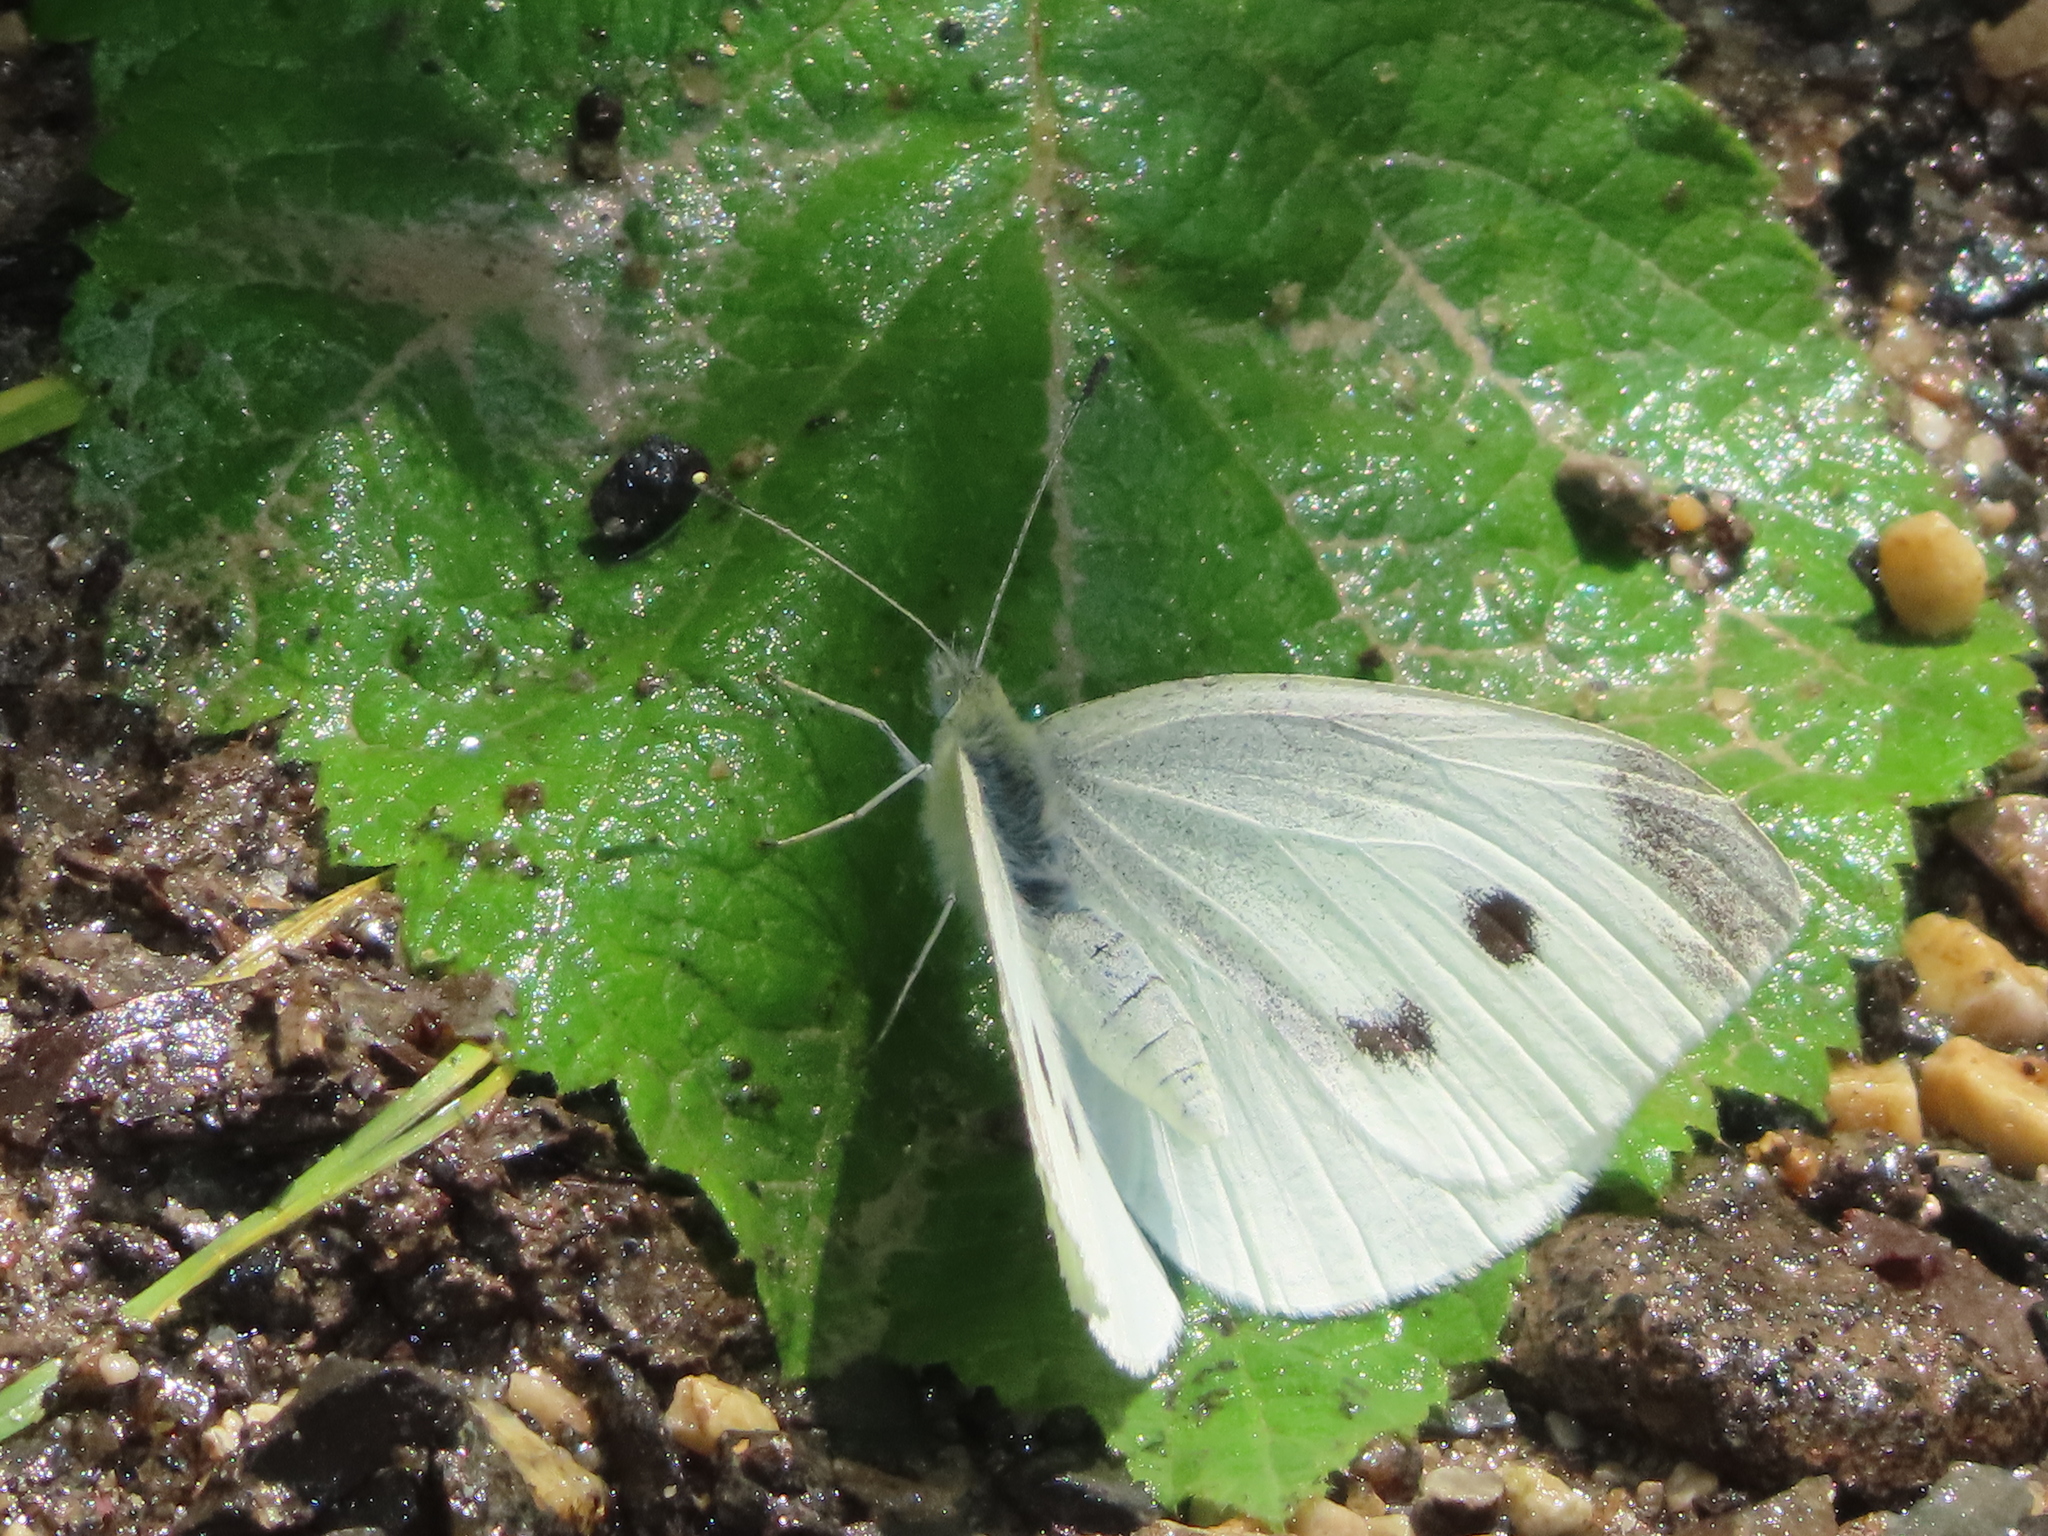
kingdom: Animalia
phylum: Arthropoda
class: Insecta
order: Lepidoptera
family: Pieridae
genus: Pieris
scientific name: Pieris rapae
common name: Small white
